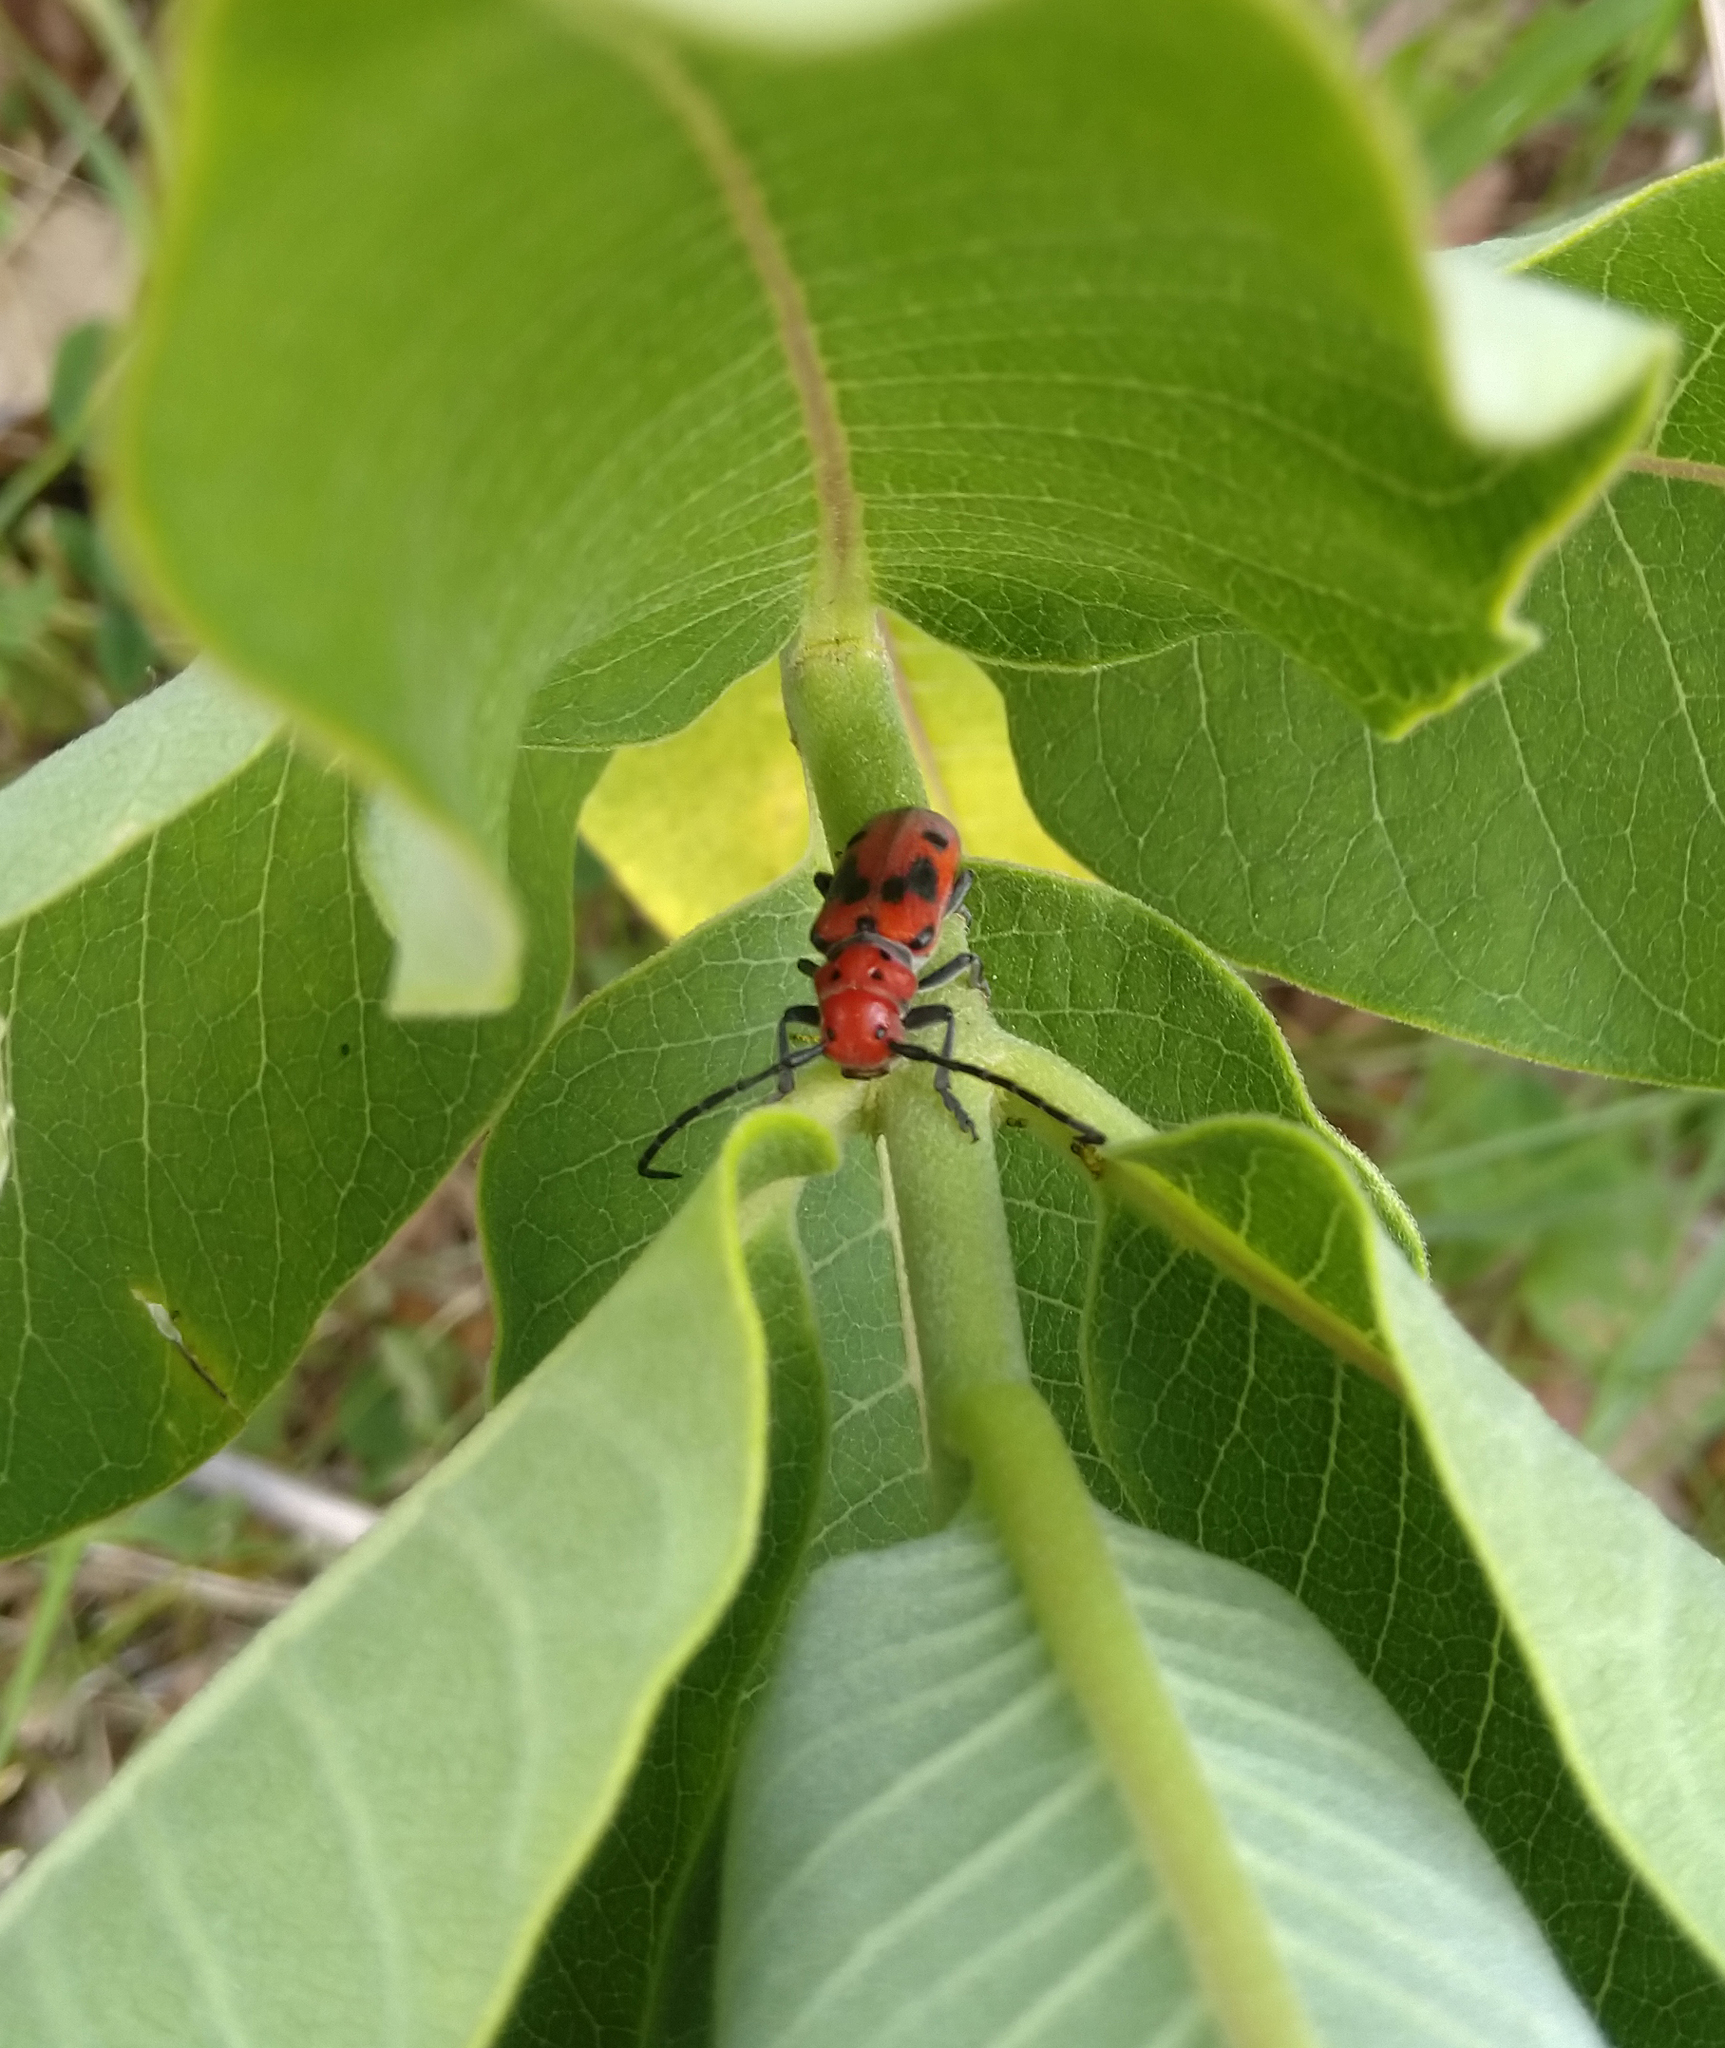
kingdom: Animalia
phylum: Arthropoda
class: Insecta
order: Coleoptera
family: Cerambycidae
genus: Tetraopes
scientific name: Tetraopes tetrophthalmus
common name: Red milkweed beetle
